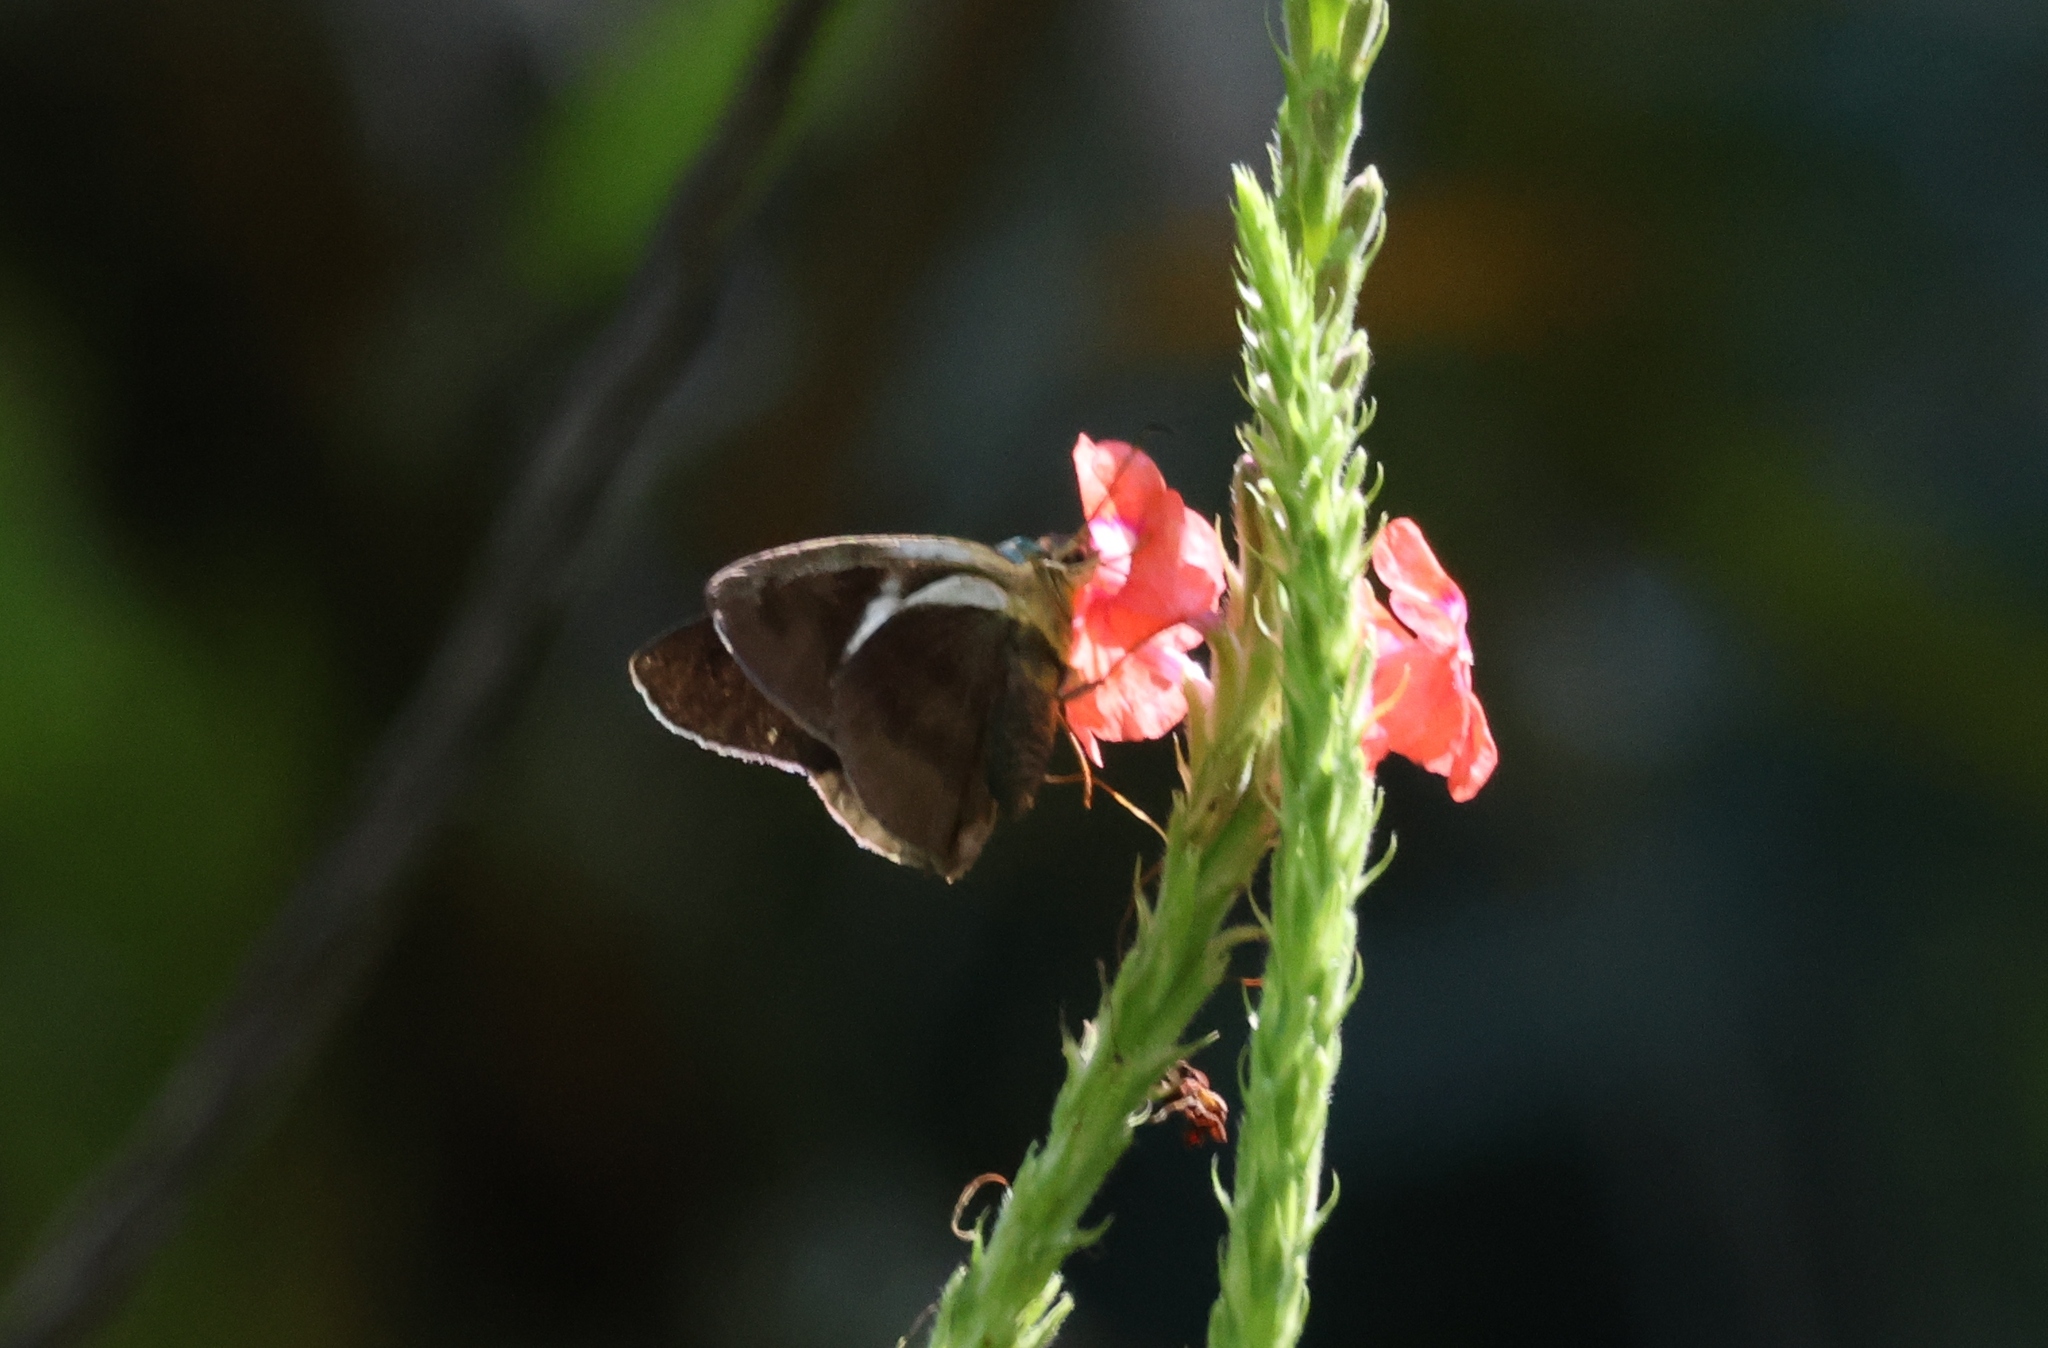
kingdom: Animalia
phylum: Arthropoda
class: Insecta
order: Lepidoptera
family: Hesperiidae
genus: Astraptes
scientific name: Astraptes alector
